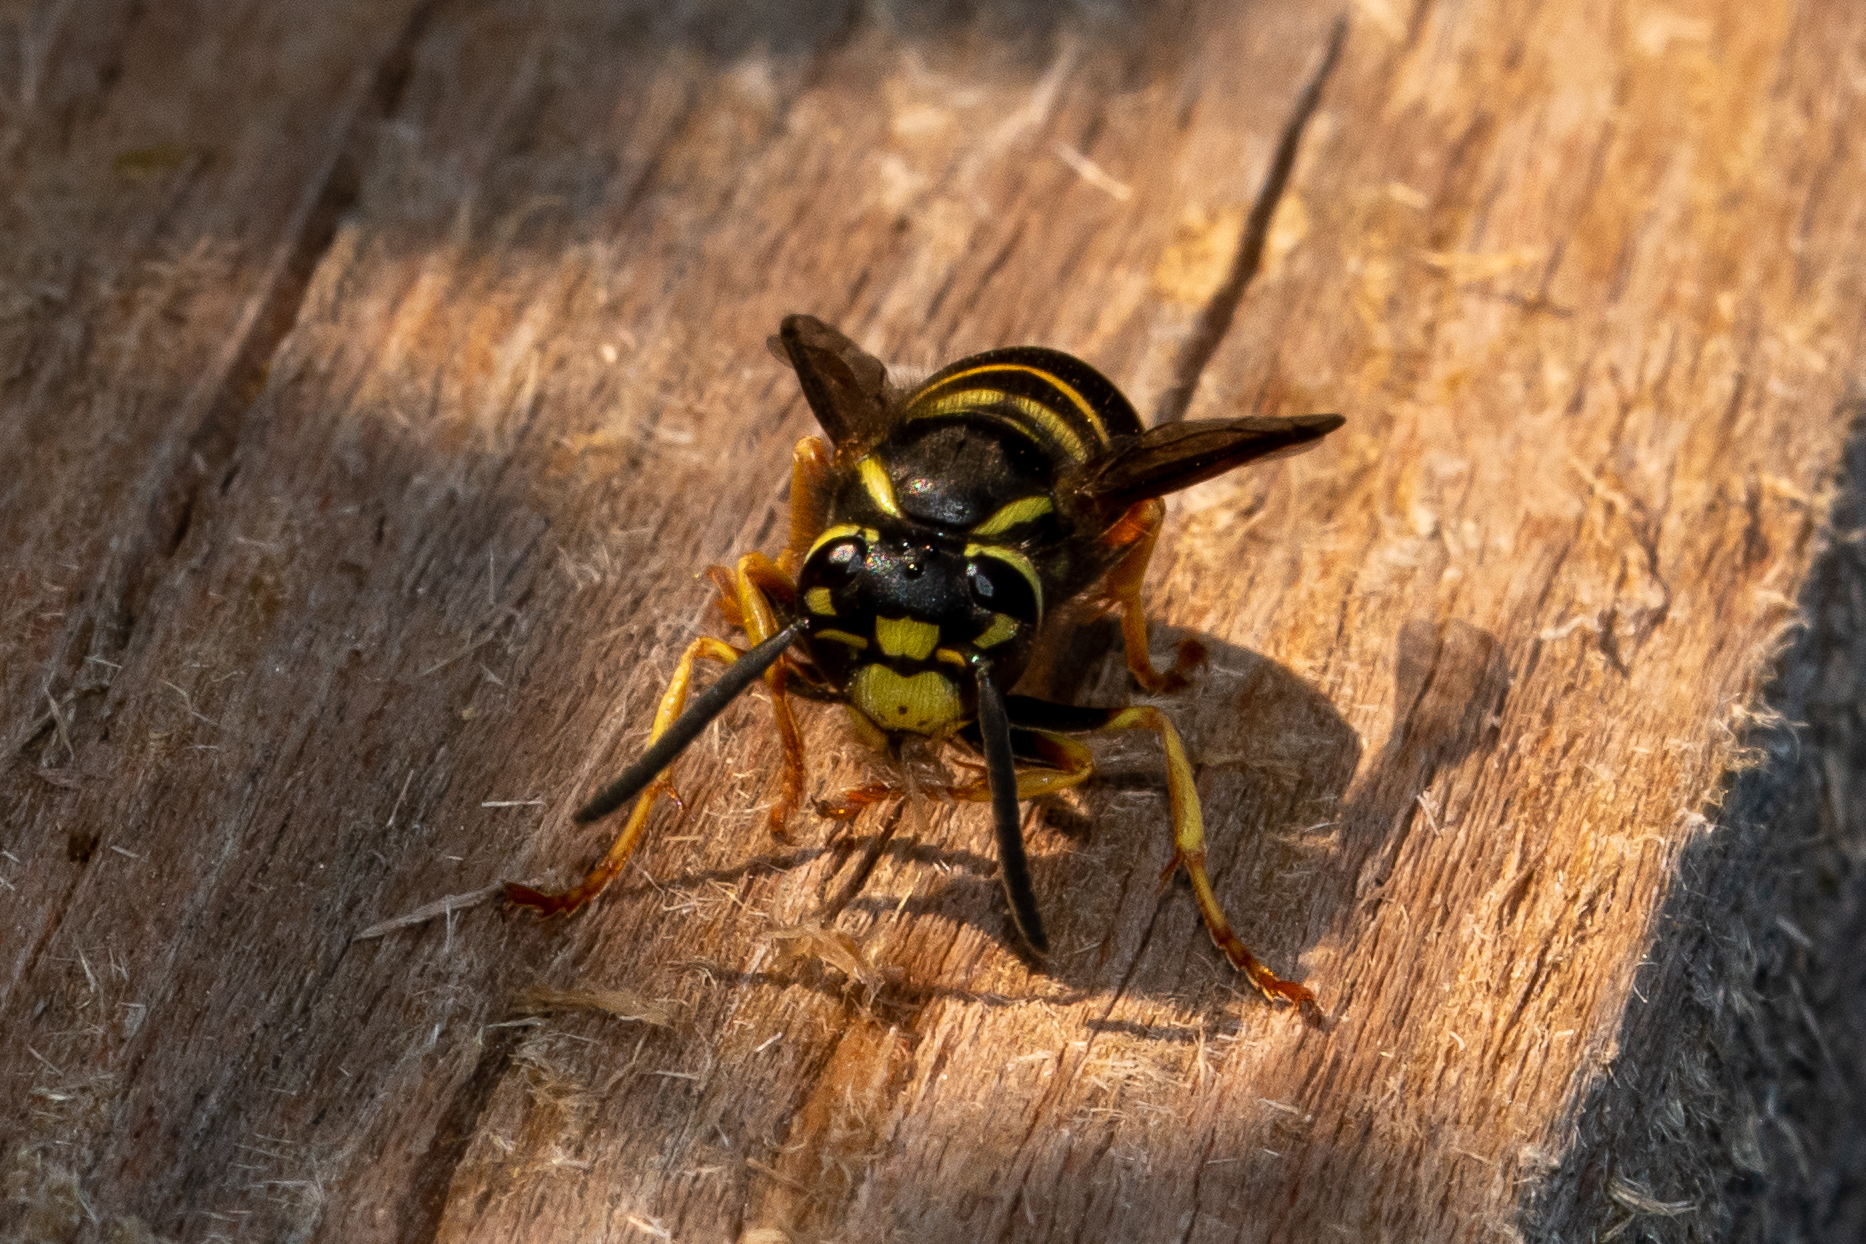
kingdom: Animalia
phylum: Arthropoda
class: Insecta
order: Hymenoptera
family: Vespidae
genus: Vespula
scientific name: Vespula vidua
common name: Widow yellowjacket
